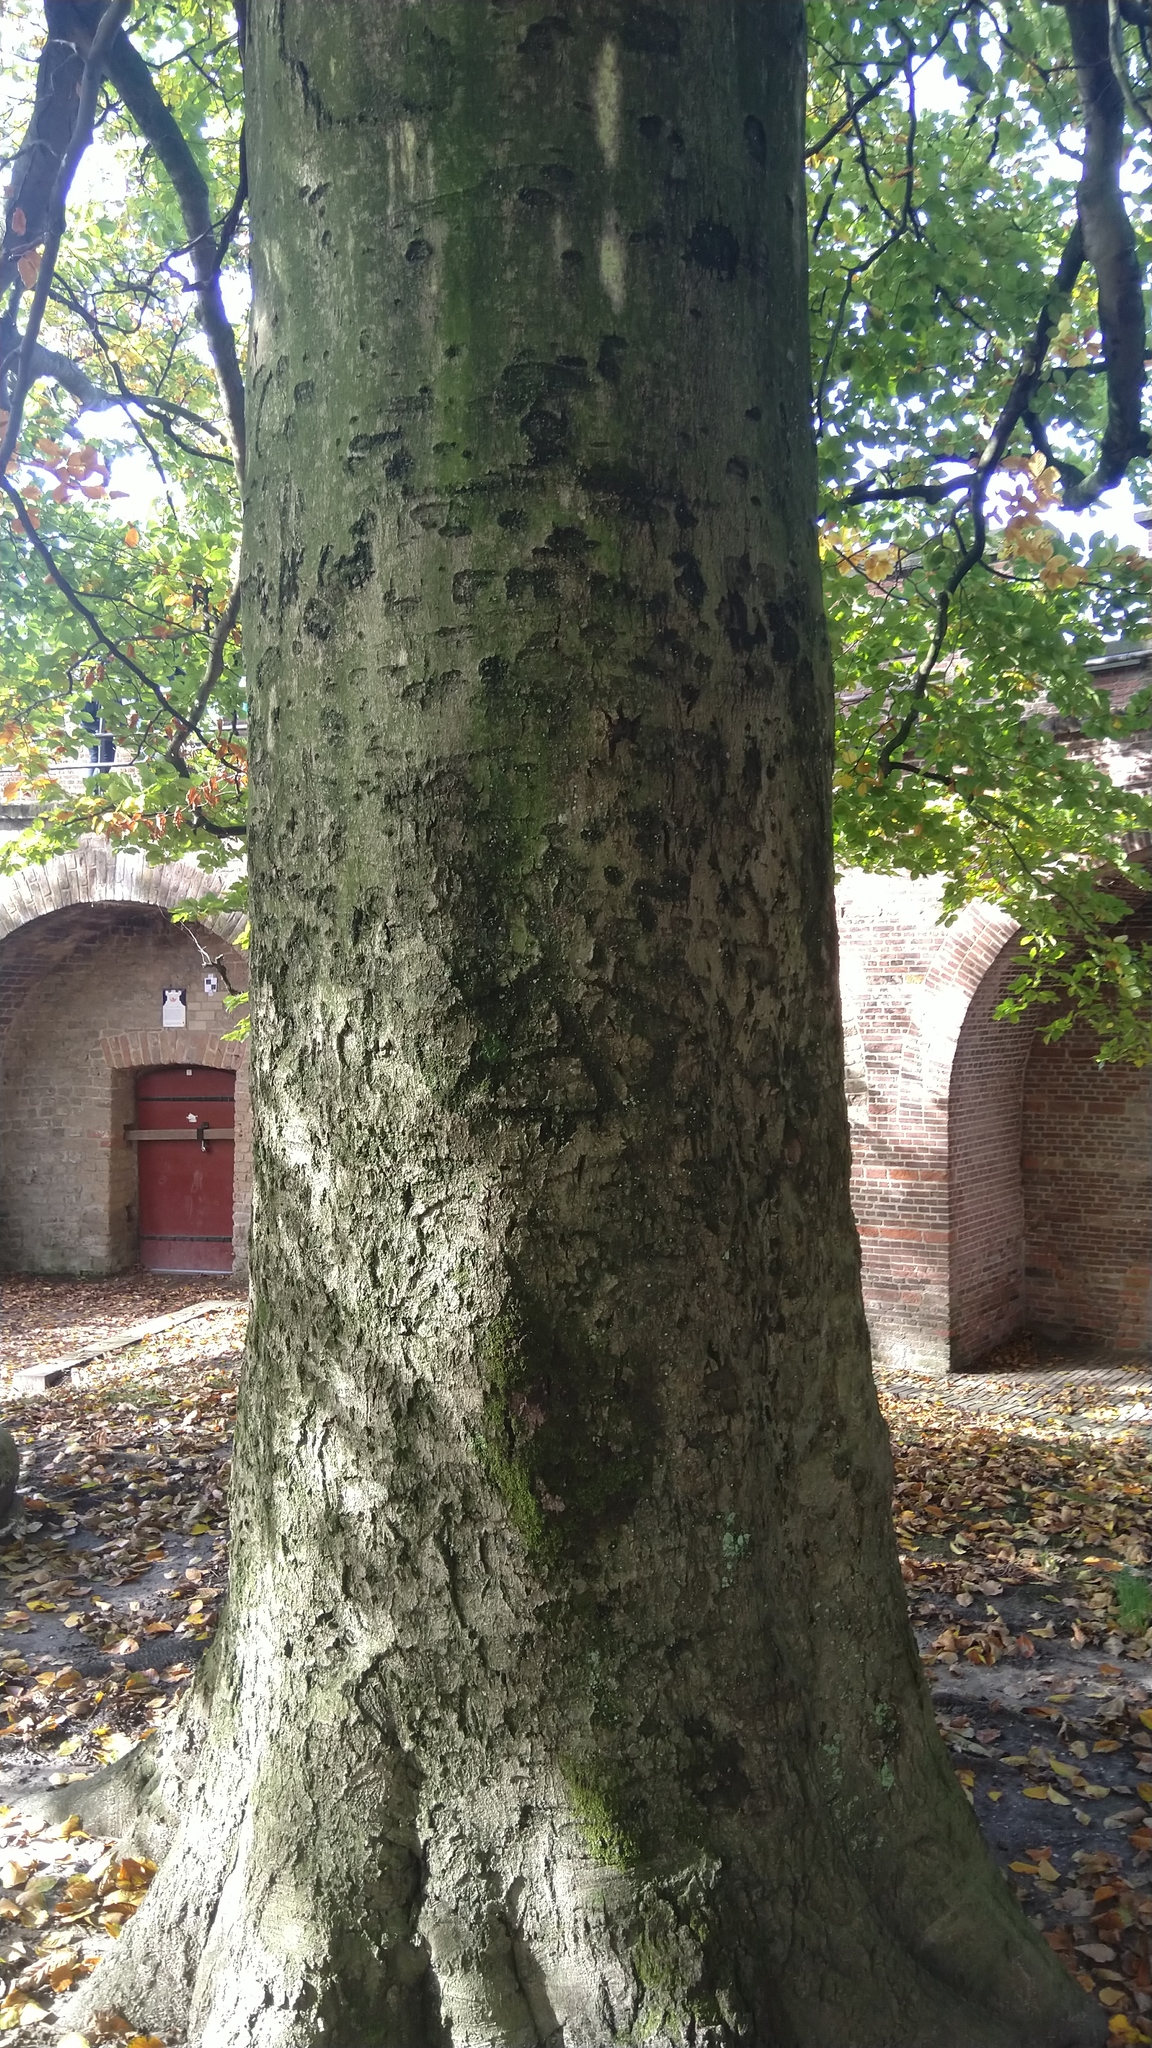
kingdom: Plantae
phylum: Tracheophyta
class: Magnoliopsida
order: Fagales
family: Fagaceae
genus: Fagus
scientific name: Fagus sylvatica
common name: Beech
